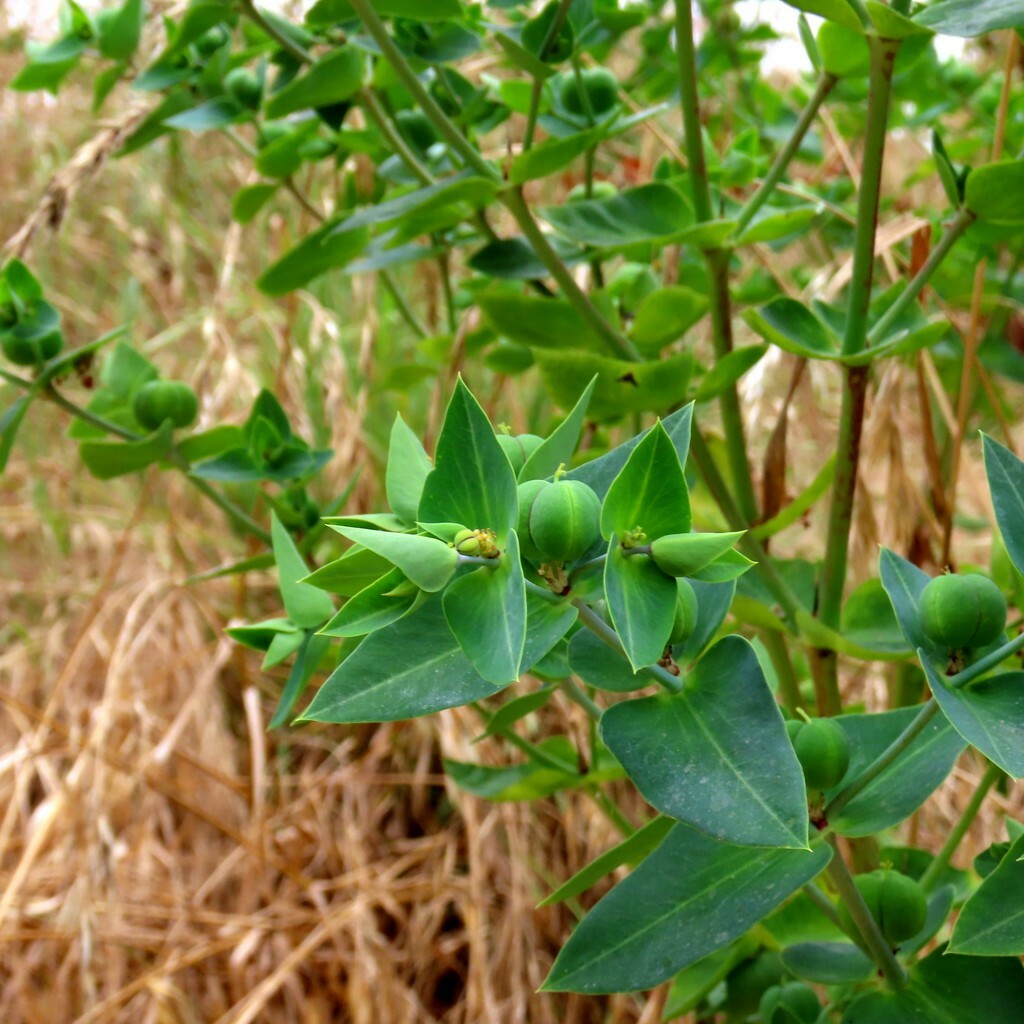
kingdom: Plantae
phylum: Tracheophyta
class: Magnoliopsida
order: Malpighiales
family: Euphorbiaceae
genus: Euphorbia
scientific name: Euphorbia lathyris
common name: Caper spurge
